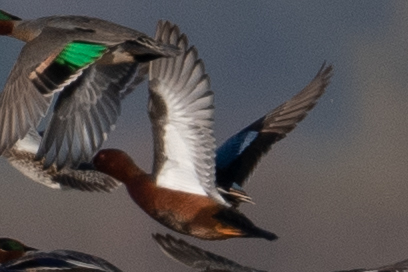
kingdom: Animalia
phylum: Chordata
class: Aves
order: Anseriformes
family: Anatidae
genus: Spatula
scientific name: Spatula cyanoptera
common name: Cinnamon teal
